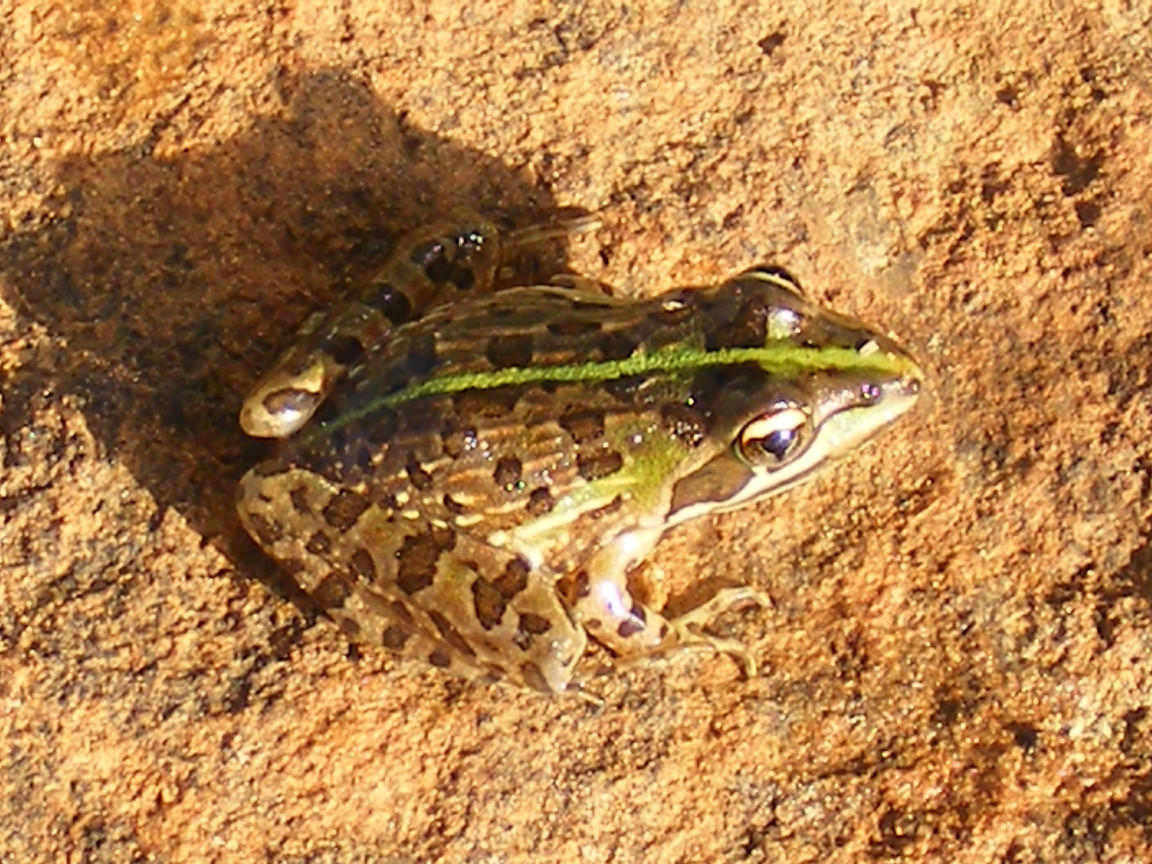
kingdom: Animalia
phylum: Chordata
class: Amphibia
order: Anura
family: Pyxicephalidae
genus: Amietia
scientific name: Amietia delalandii
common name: Delalande's river frog
